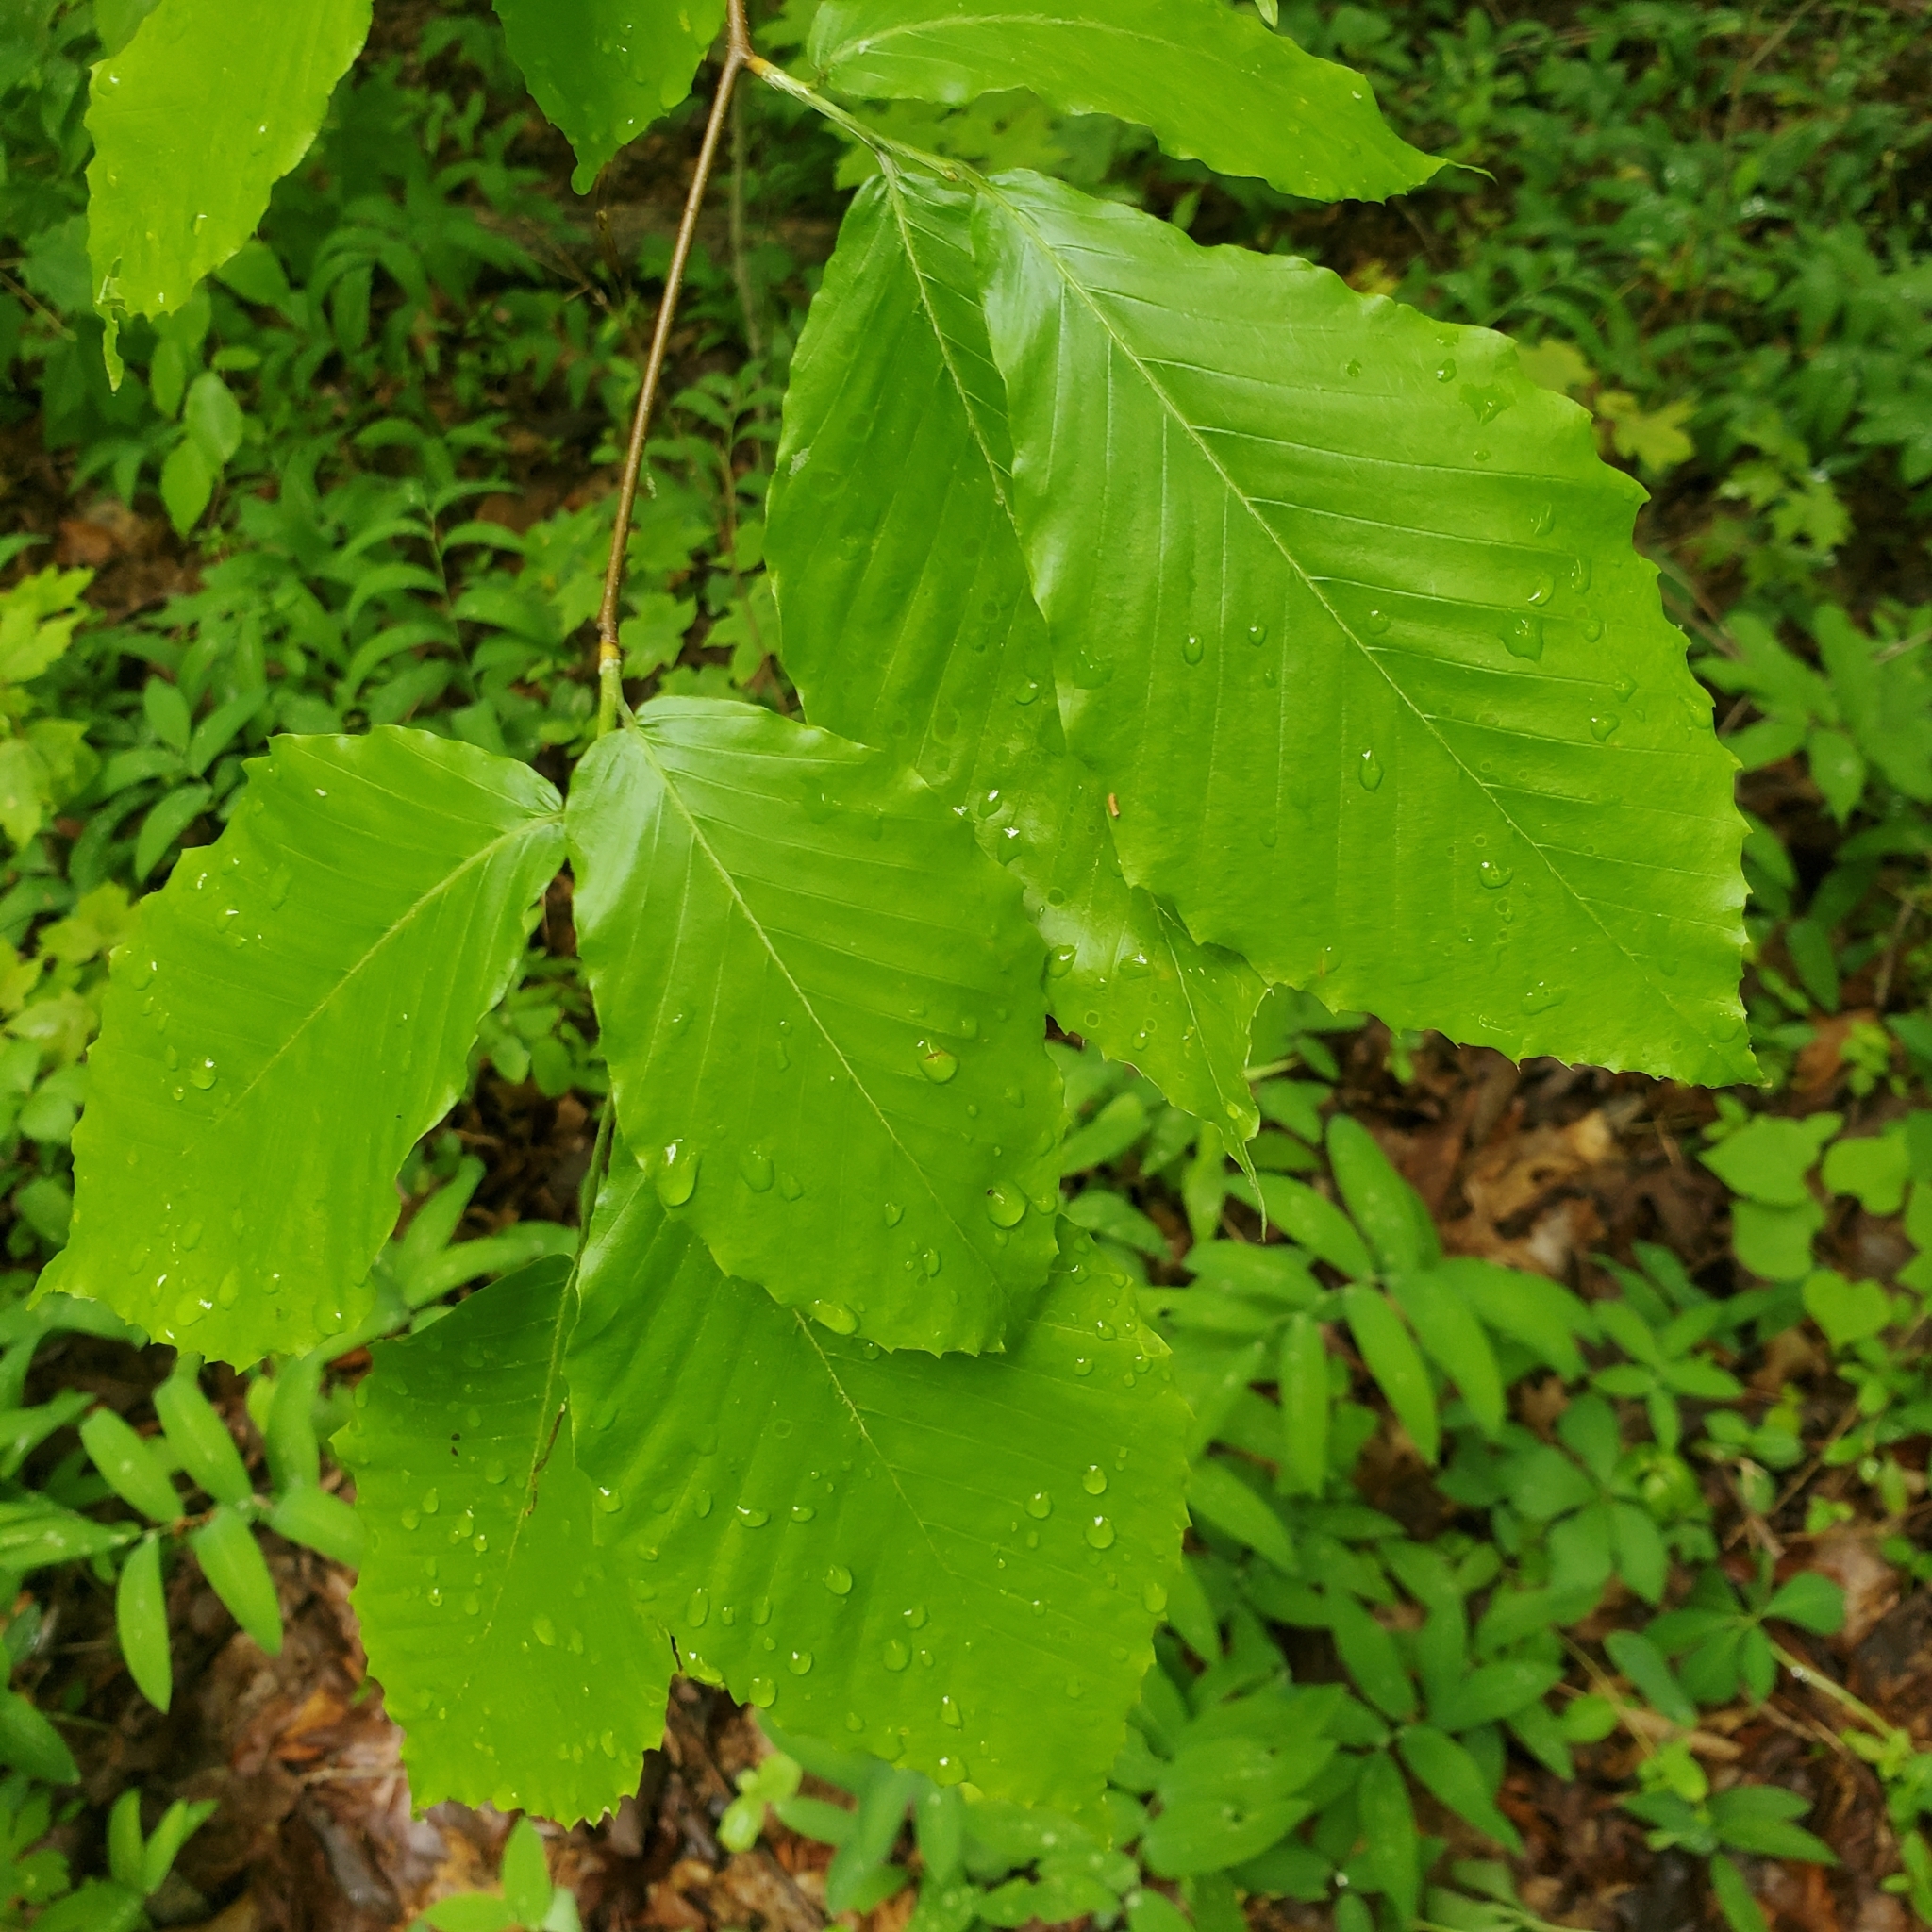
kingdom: Plantae
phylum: Tracheophyta
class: Magnoliopsida
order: Fagales
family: Fagaceae
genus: Fagus
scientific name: Fagus grandifolia
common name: American beech
